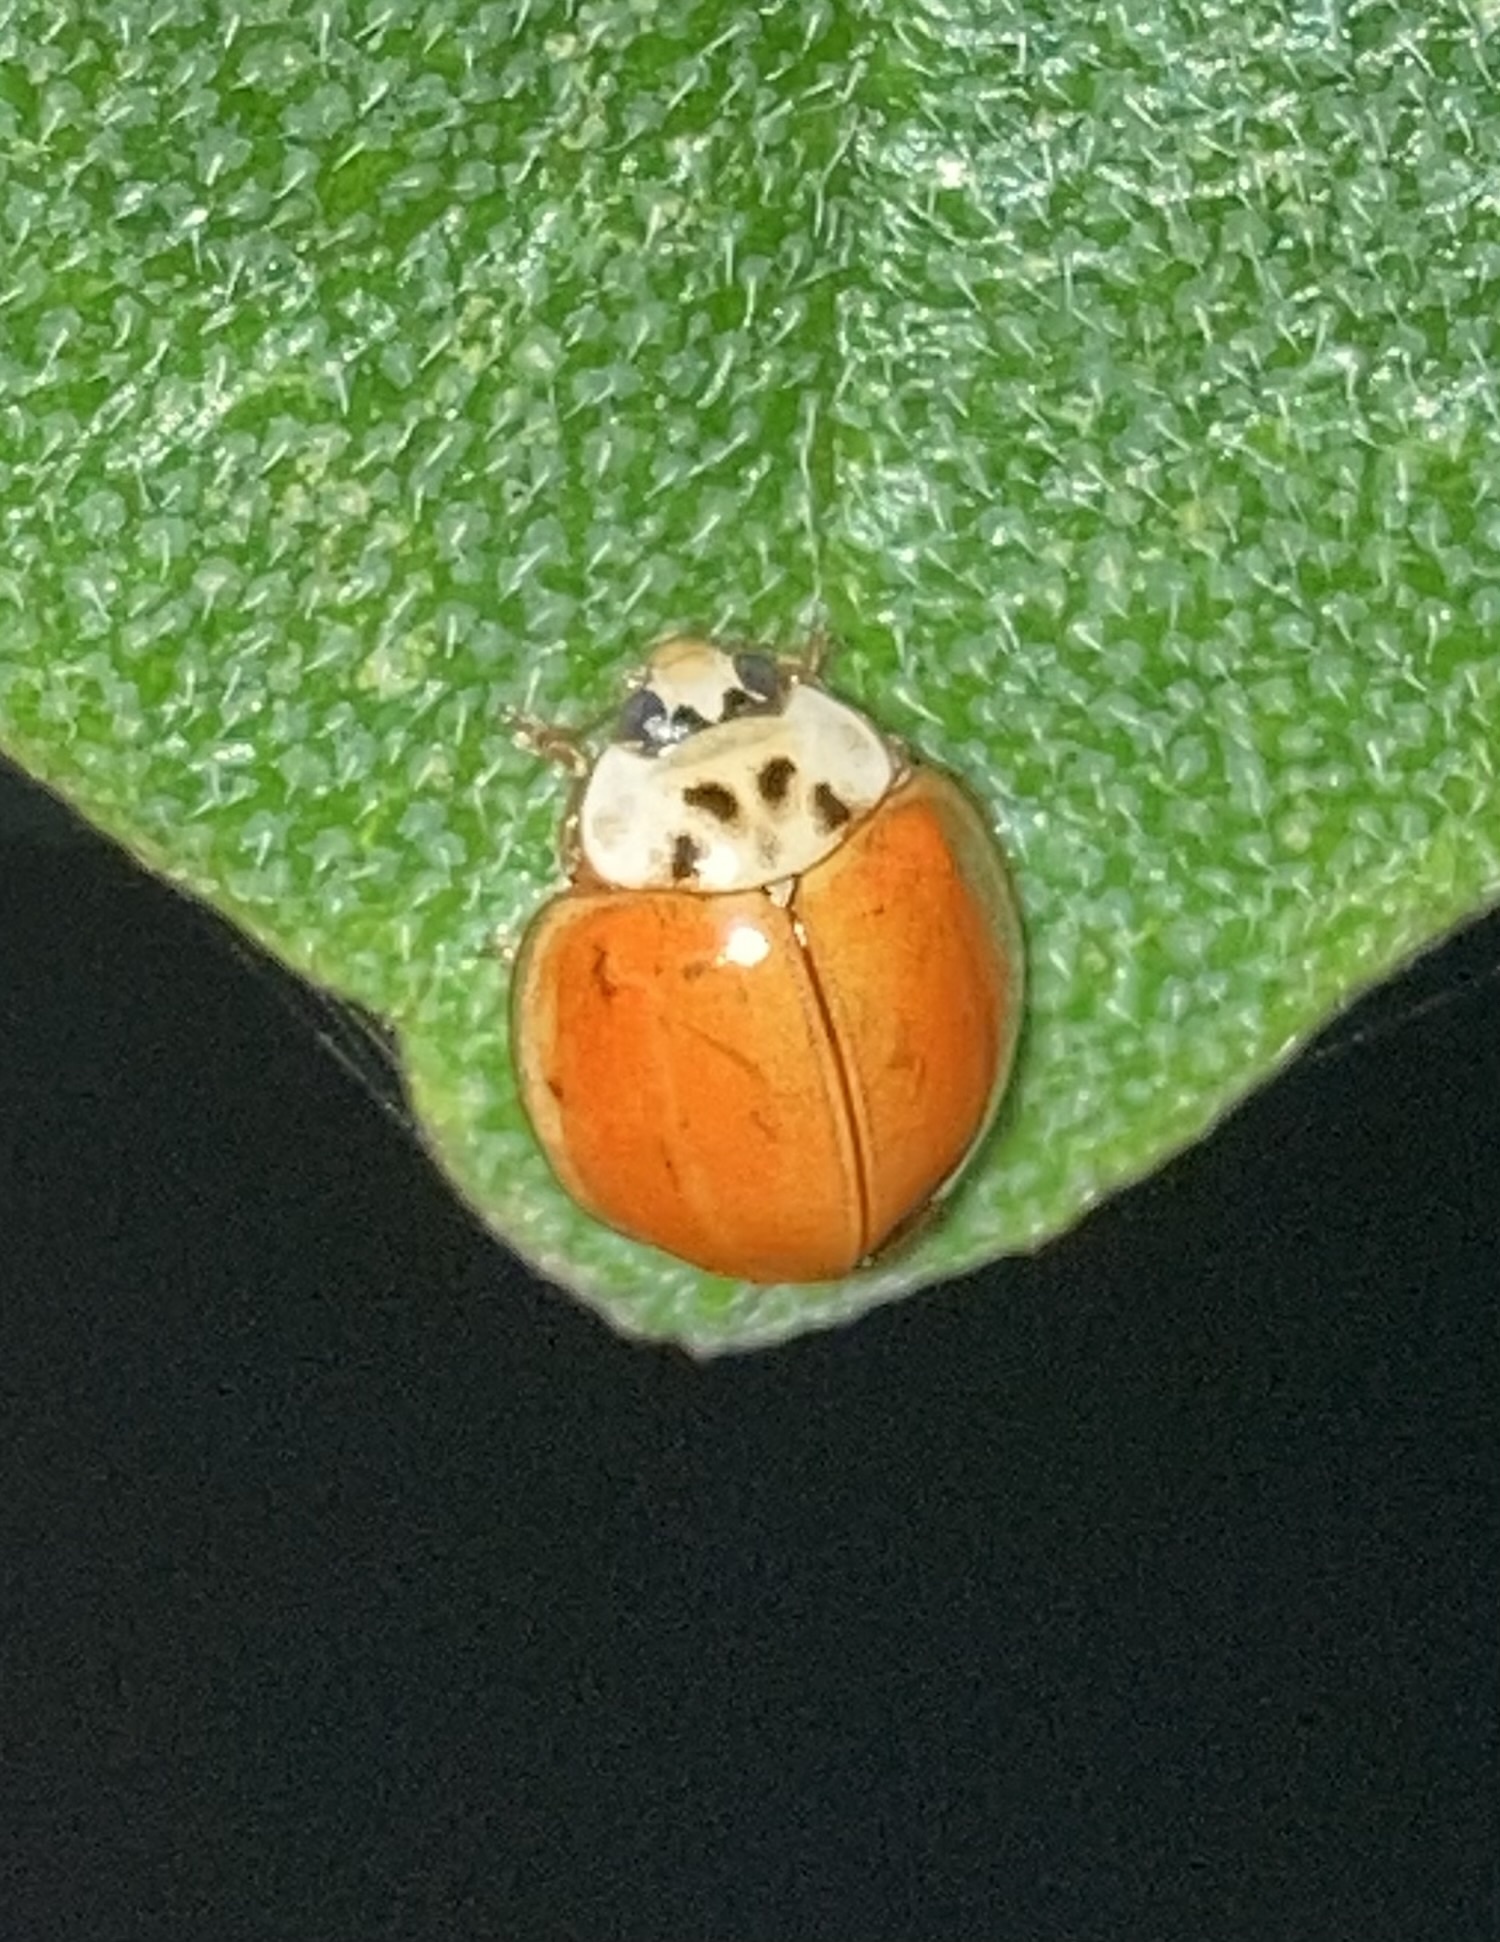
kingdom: Animalia
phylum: Arthropoda
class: Insecta
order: Coleoptera
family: Coccinellidae
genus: Harmonia
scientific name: Harmonia axyridis
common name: Harlequin ladybird
